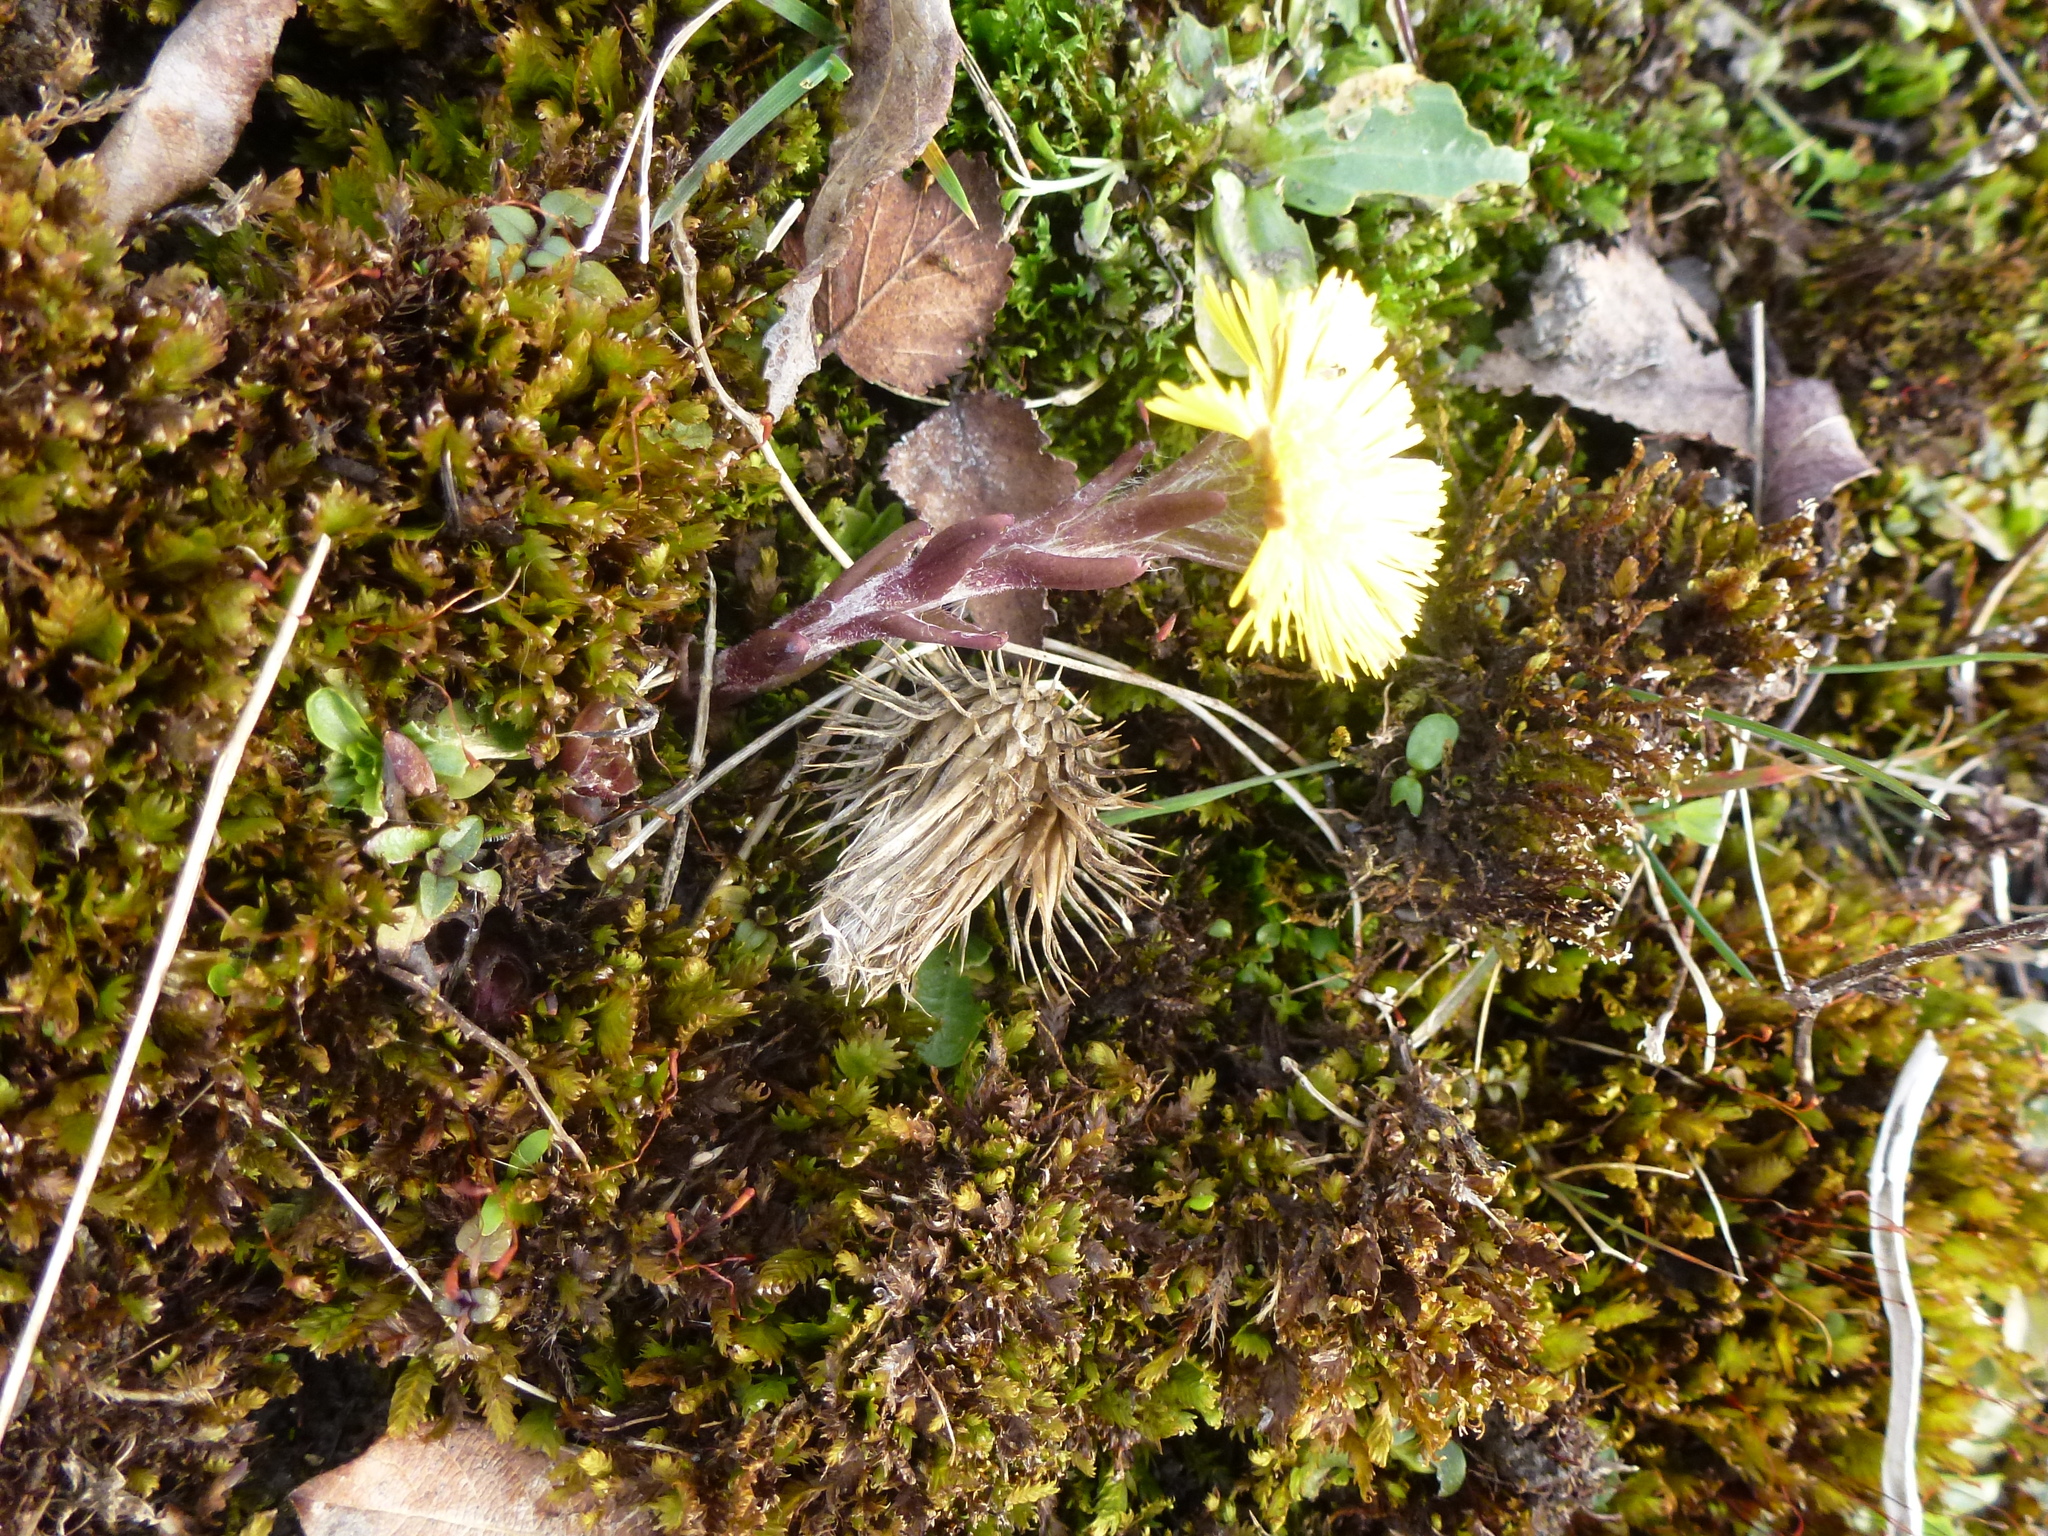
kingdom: Plantae
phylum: Tracheophyta
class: Magnoliopsida
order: Asterales
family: Asteraceae
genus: Tussilago
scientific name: Tussilago farfara
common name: Coltsfoot
